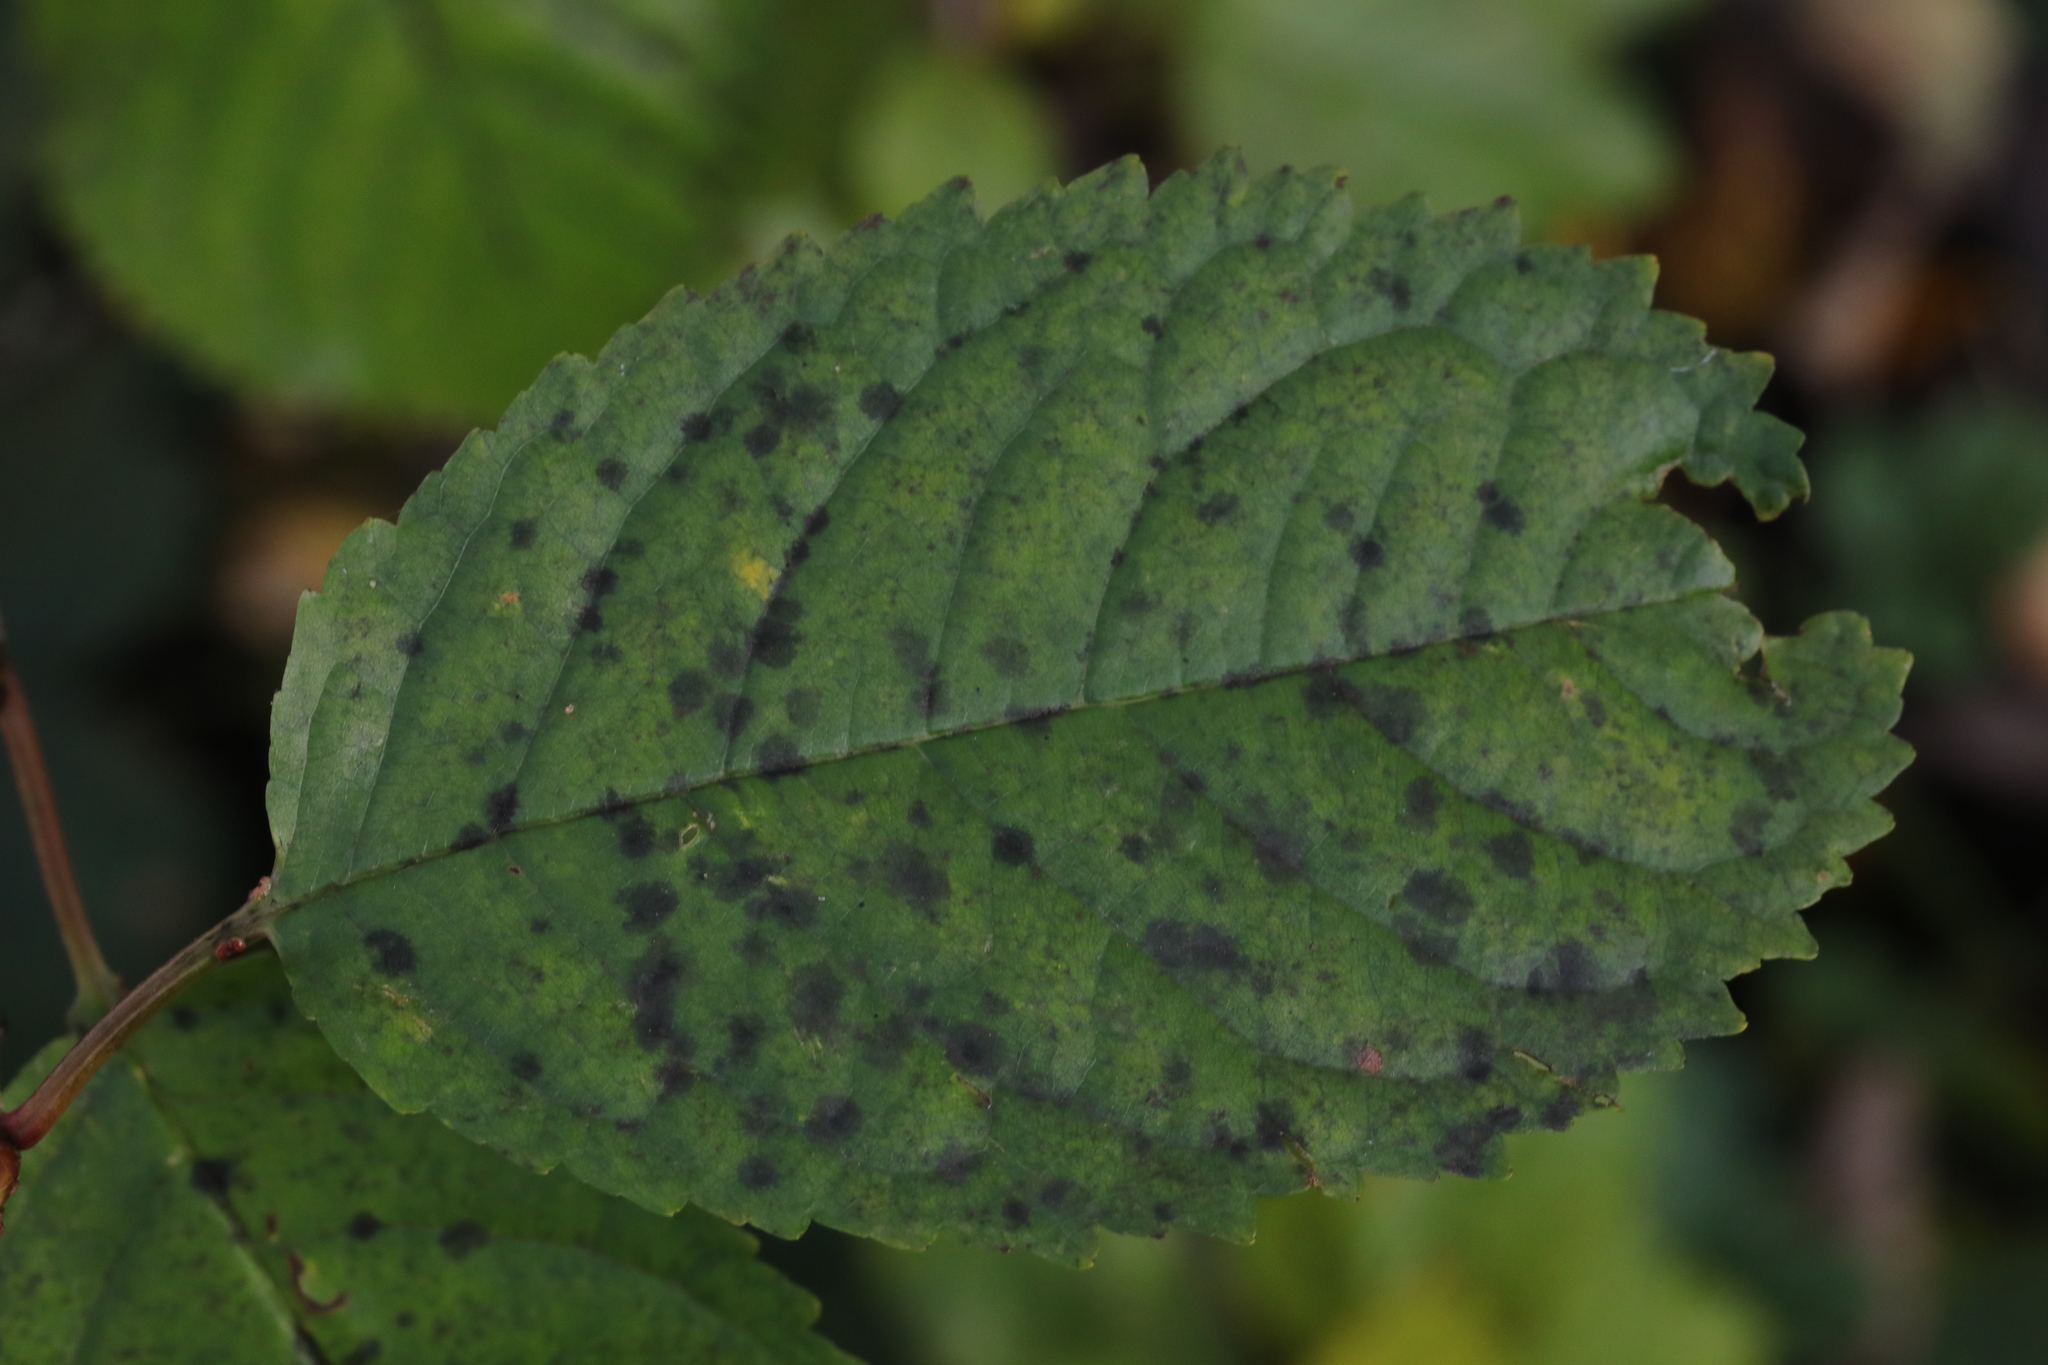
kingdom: Fungi
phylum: Ascomycota
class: Leotiomycetes
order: Helotiales
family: Drepanopezizaceae
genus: Blumeriella
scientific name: Blumeriella jaapii
